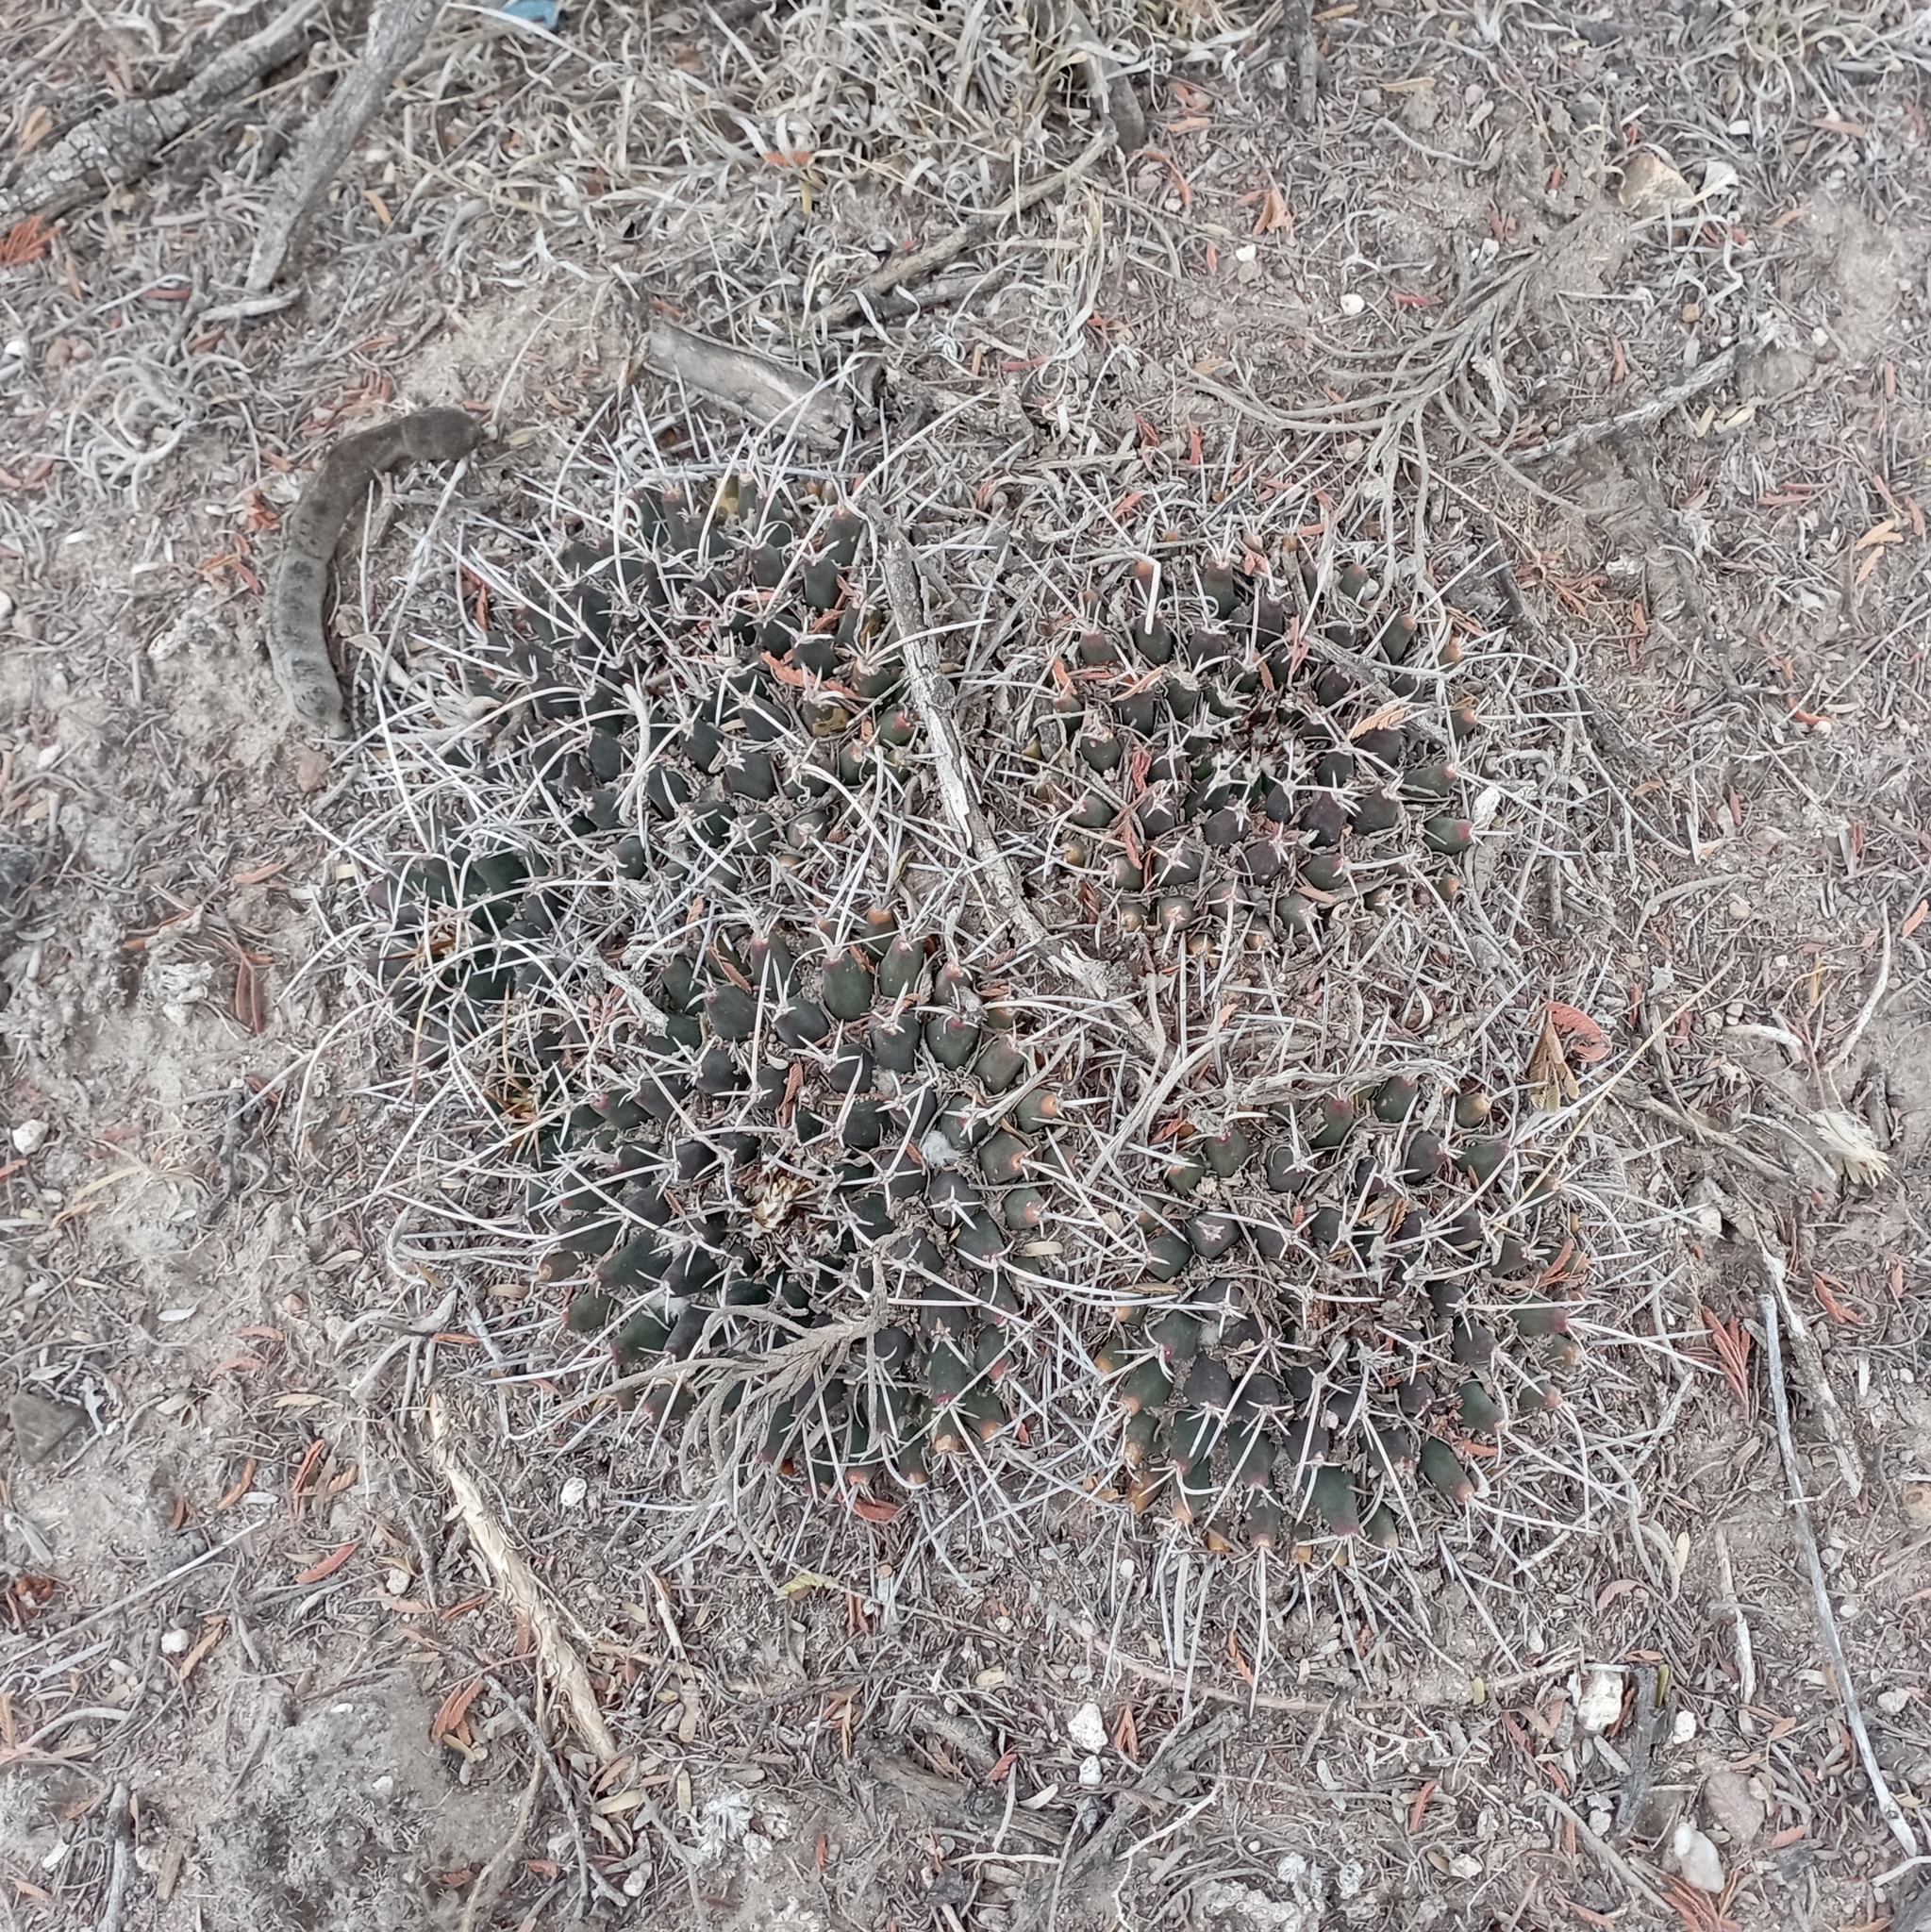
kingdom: Plantae
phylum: Tracheophyta
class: Magnoliopsida
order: Caryophyllales
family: Cactaceae
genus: Mammillaria
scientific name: Mammillaria magnimamma
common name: Mexican pincushion
